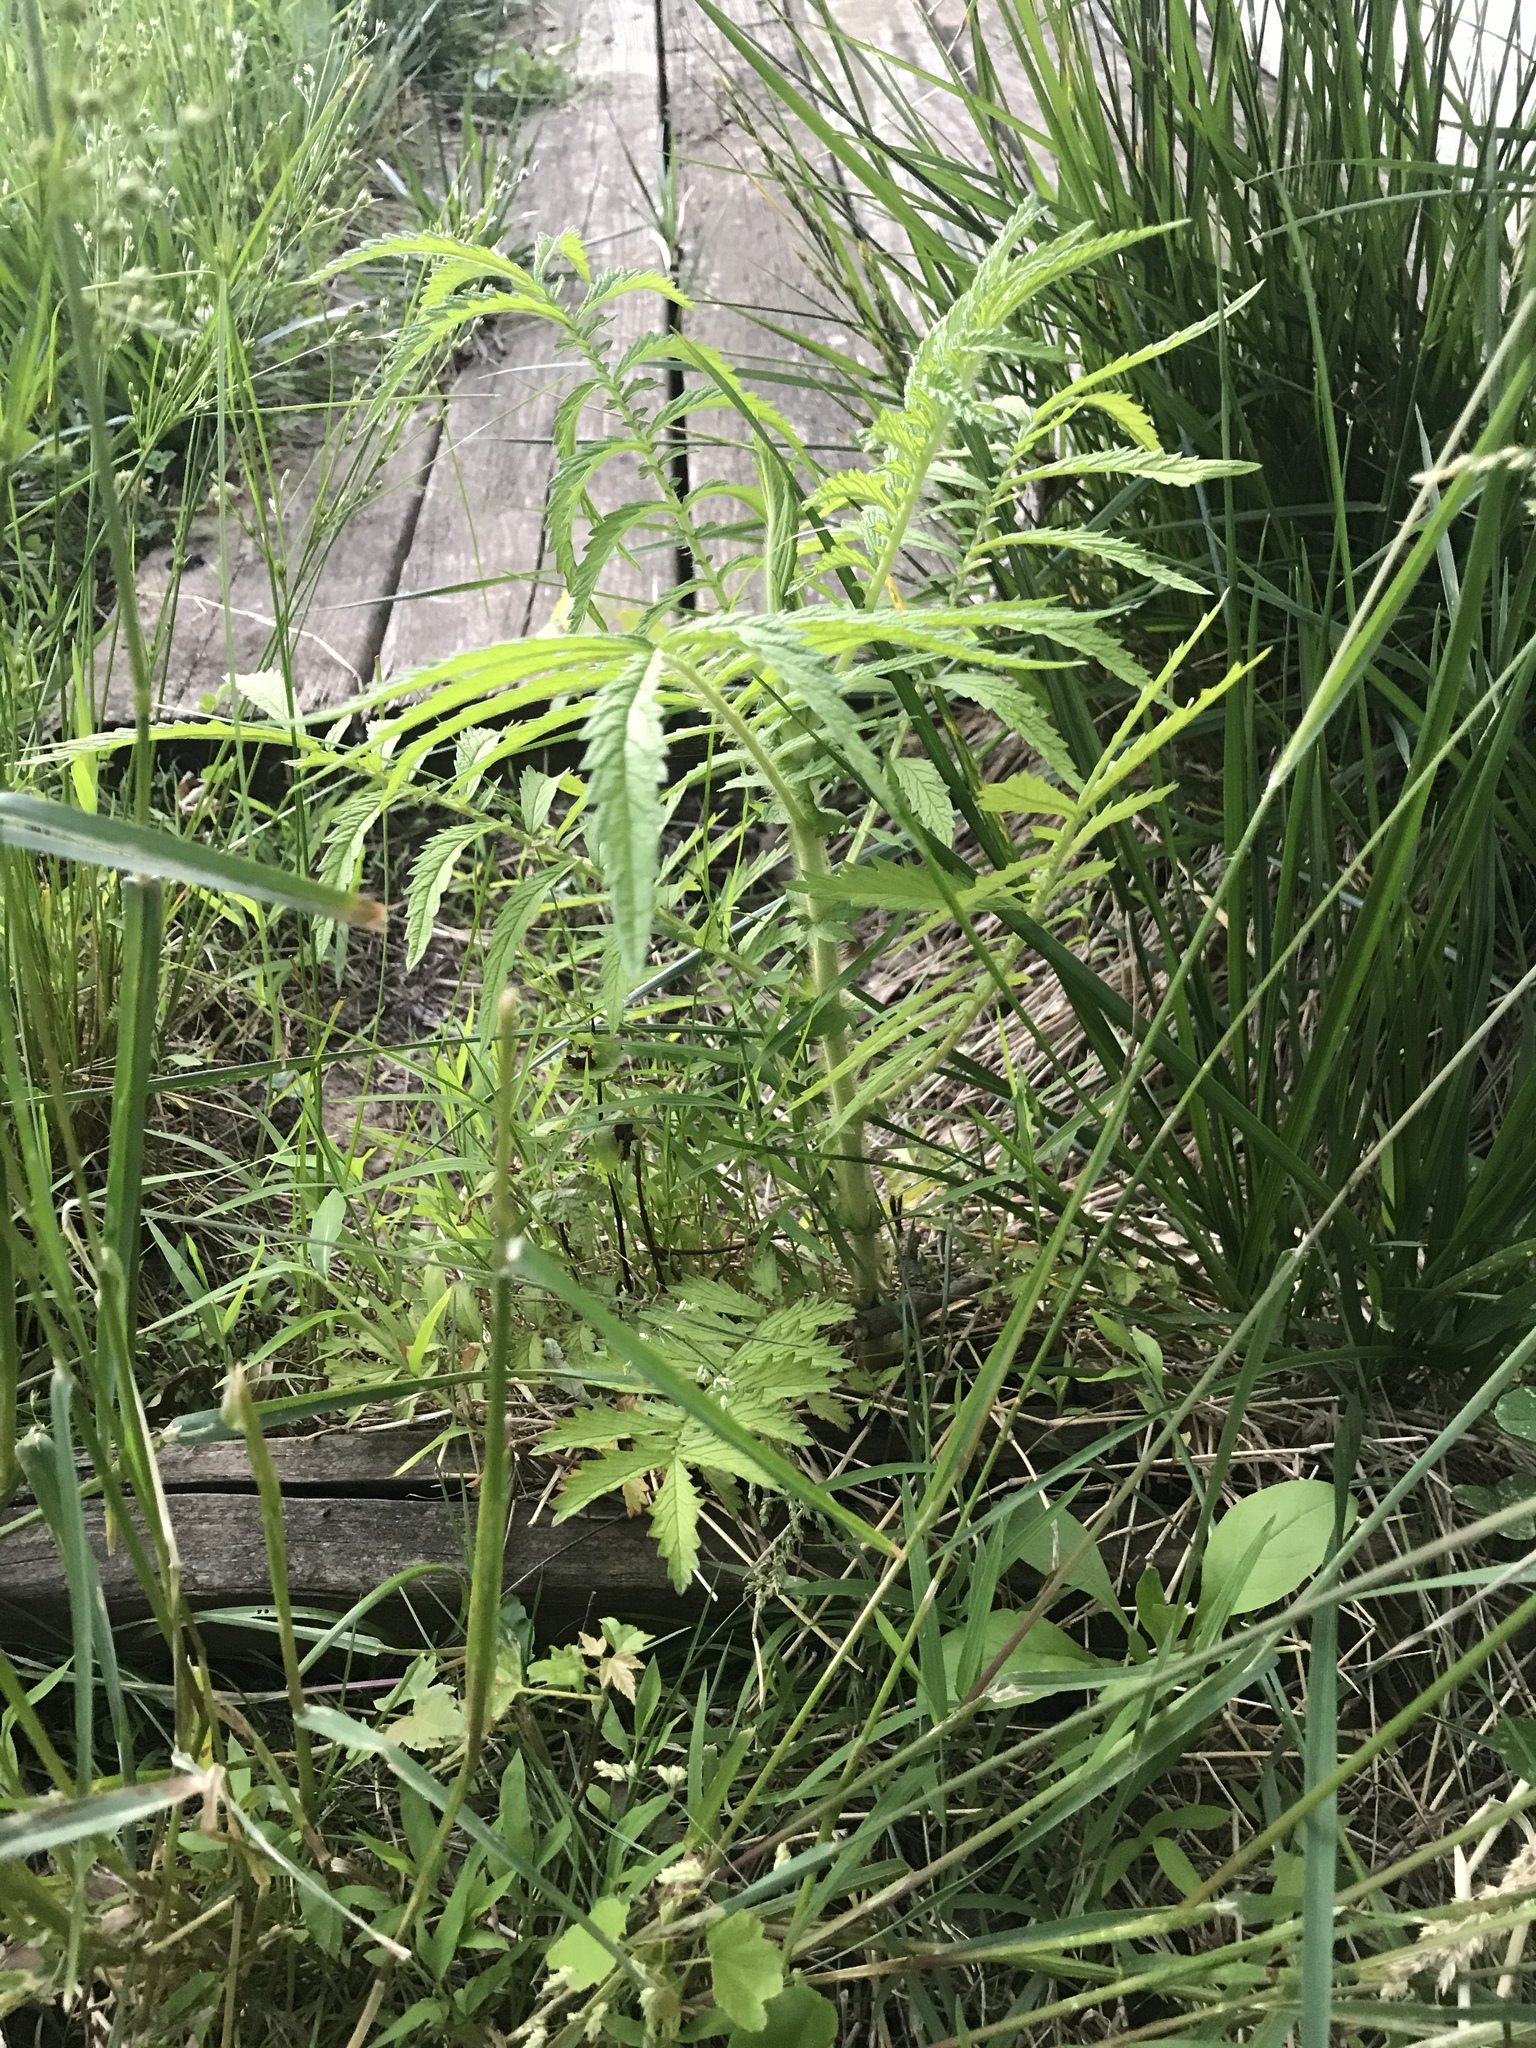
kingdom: Plantae
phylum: Tracheophyta
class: Magnoliopsida
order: Rosales
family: Rosaceae
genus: Agrimonia
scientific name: Agrimonia parviflora
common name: Harvest-lice
